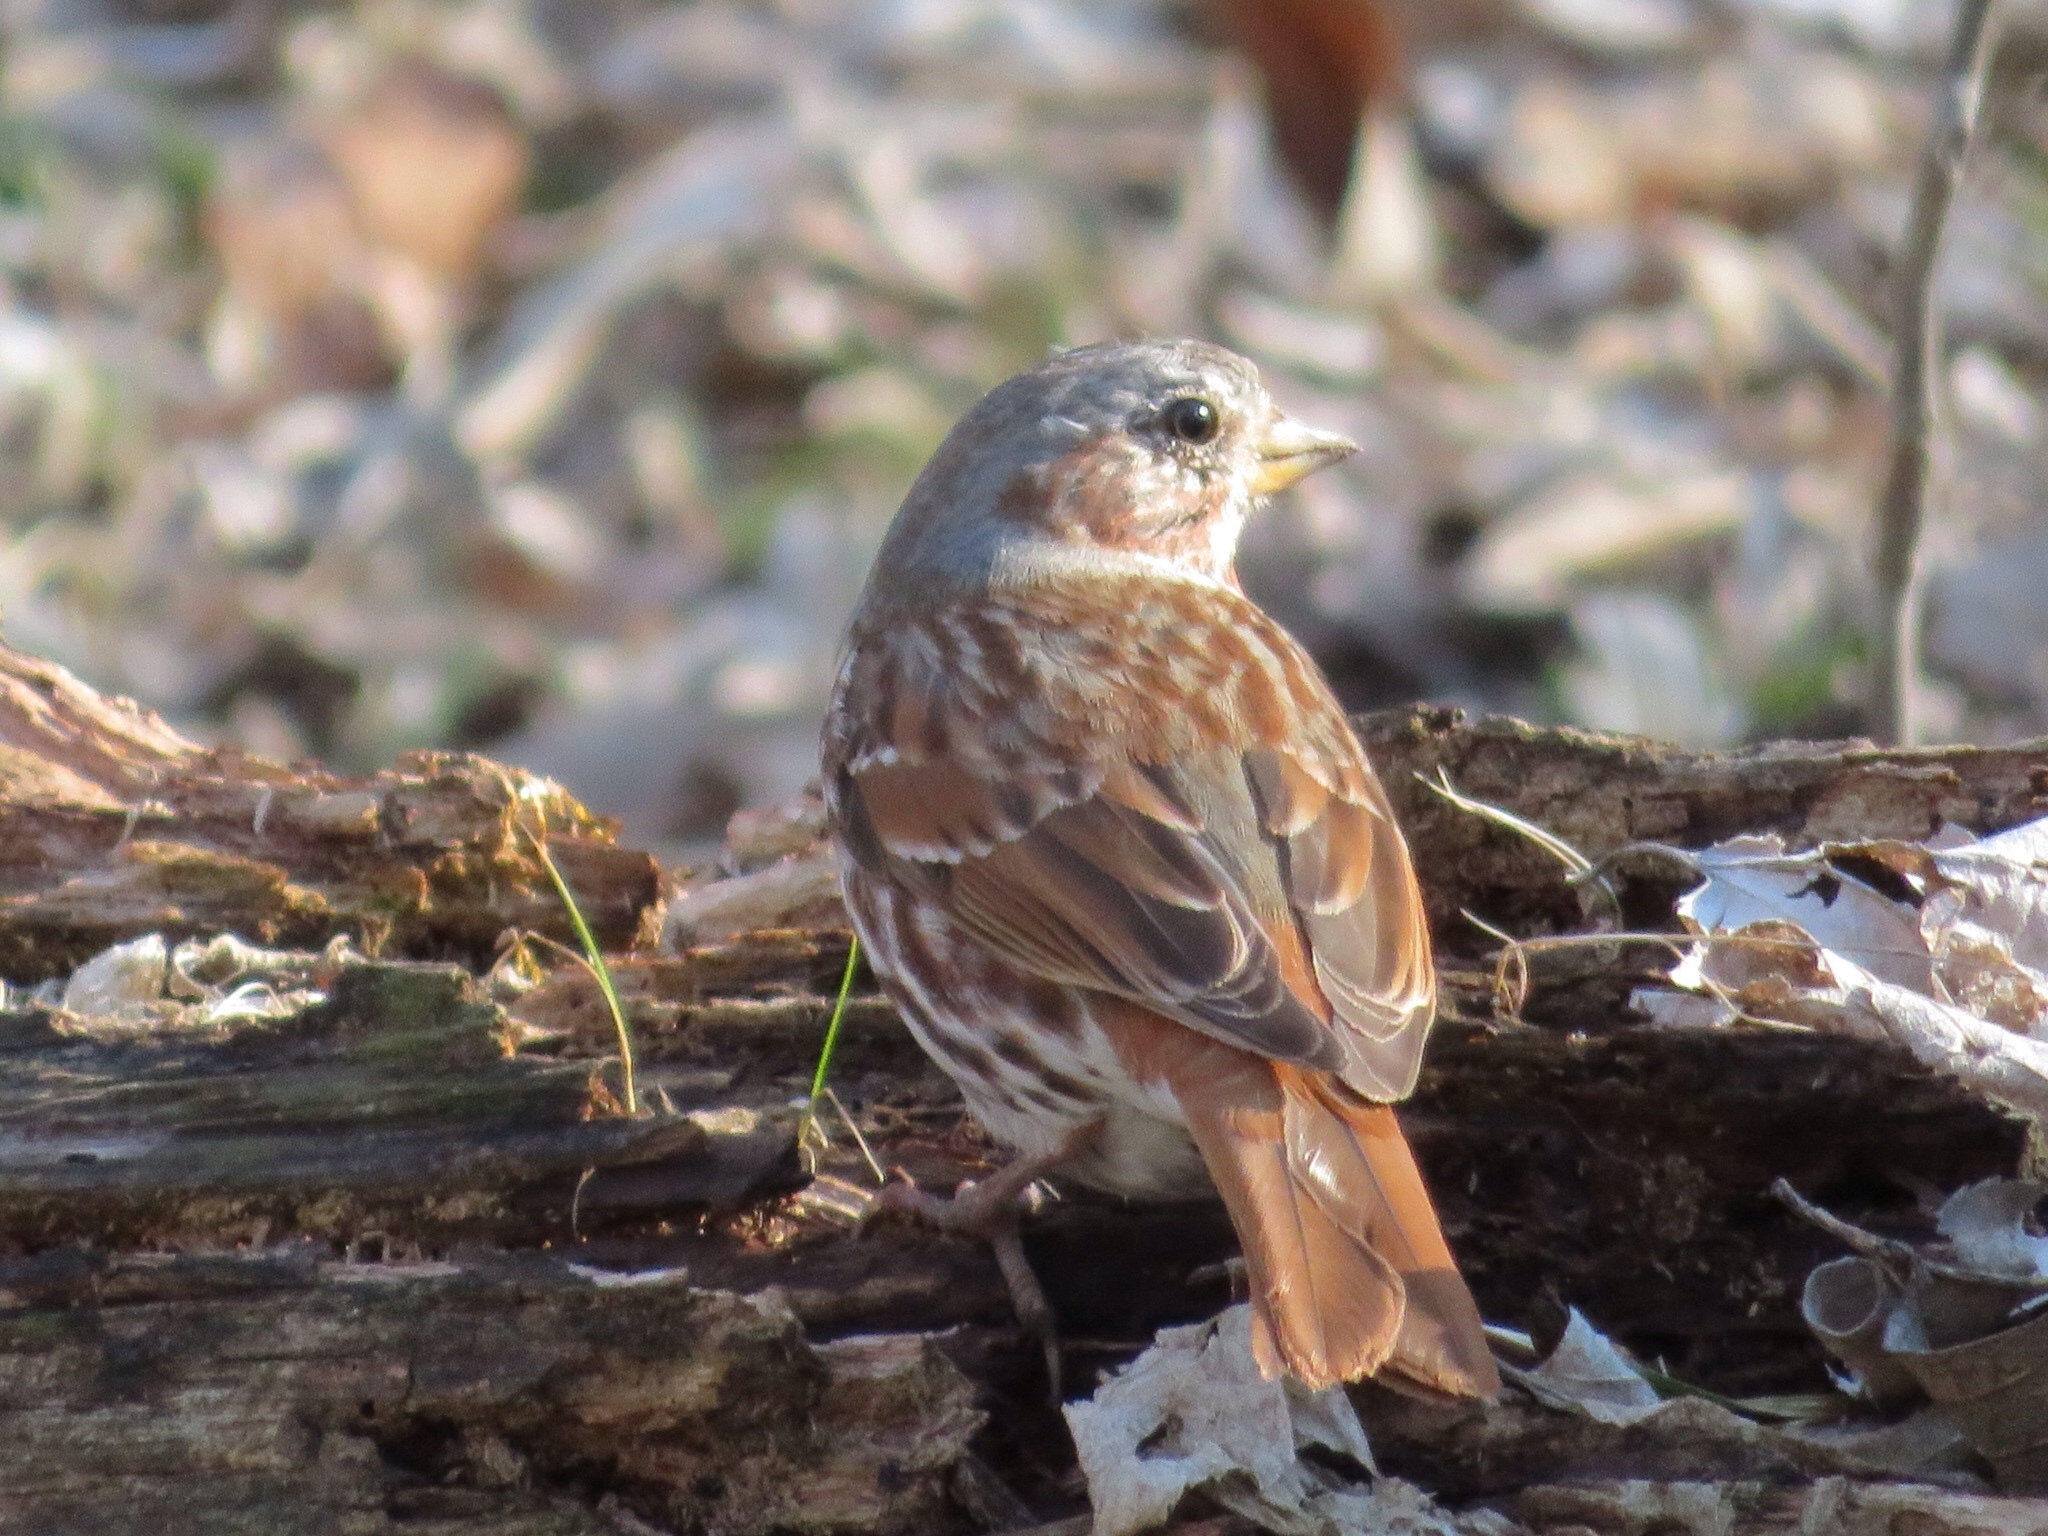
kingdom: Animalia
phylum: Chordata
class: Aves
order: Passeriformes
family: Passerellidae
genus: Passerella
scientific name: Passerella iliaca
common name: Fox sparrow
